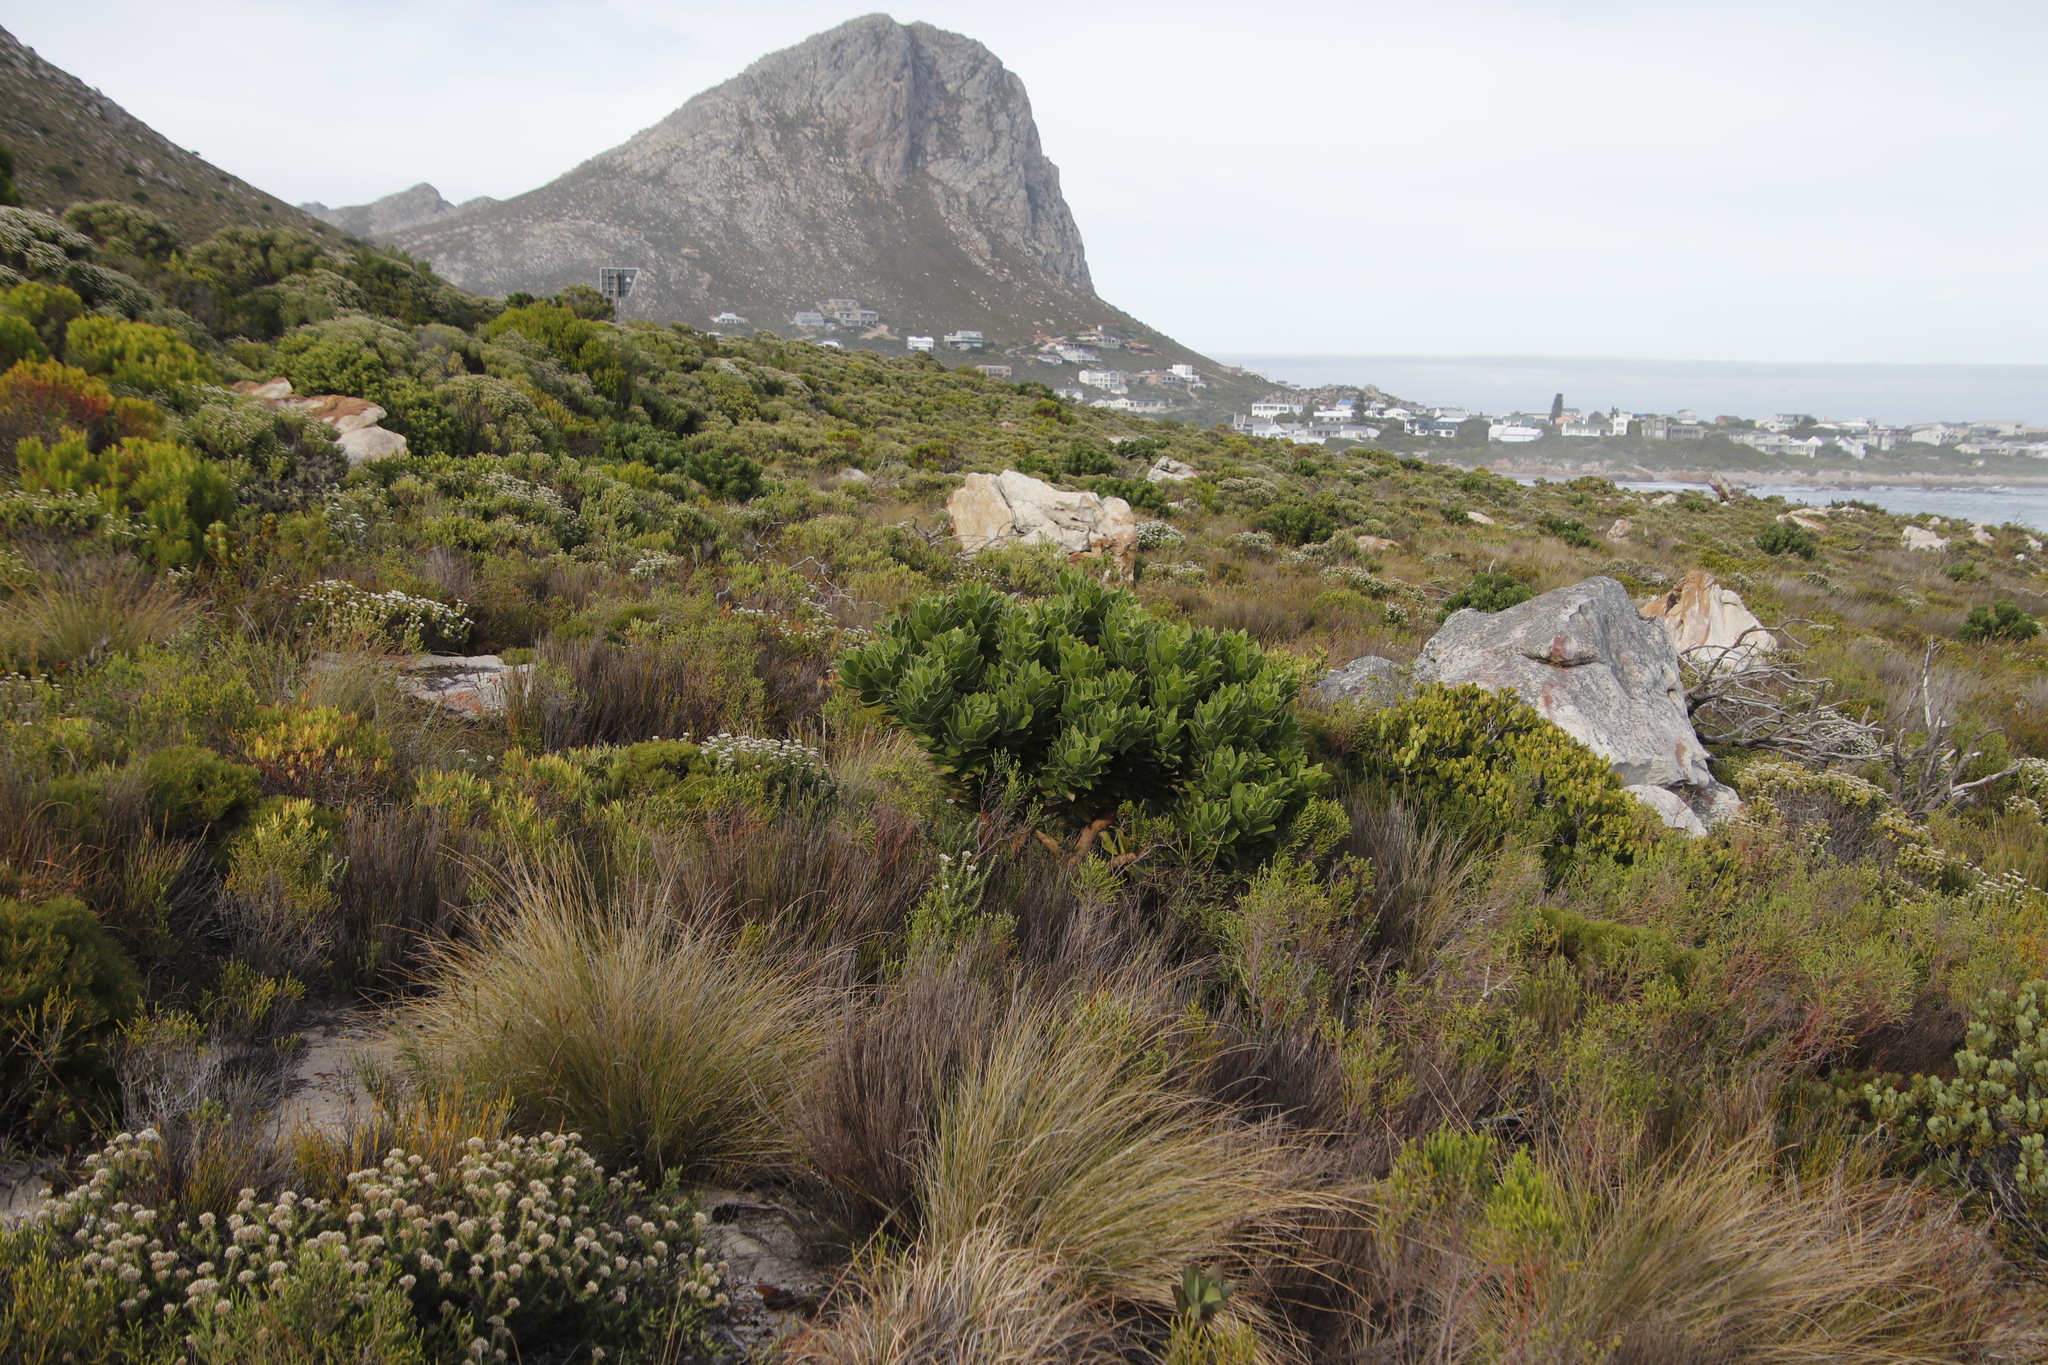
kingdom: Plantae
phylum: Tracheophyta
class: Magnoliopsida
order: Proteales
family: Proteaceae
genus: Leucospermum
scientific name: Leucospermum conocarpodendron
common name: Tree pincushion
